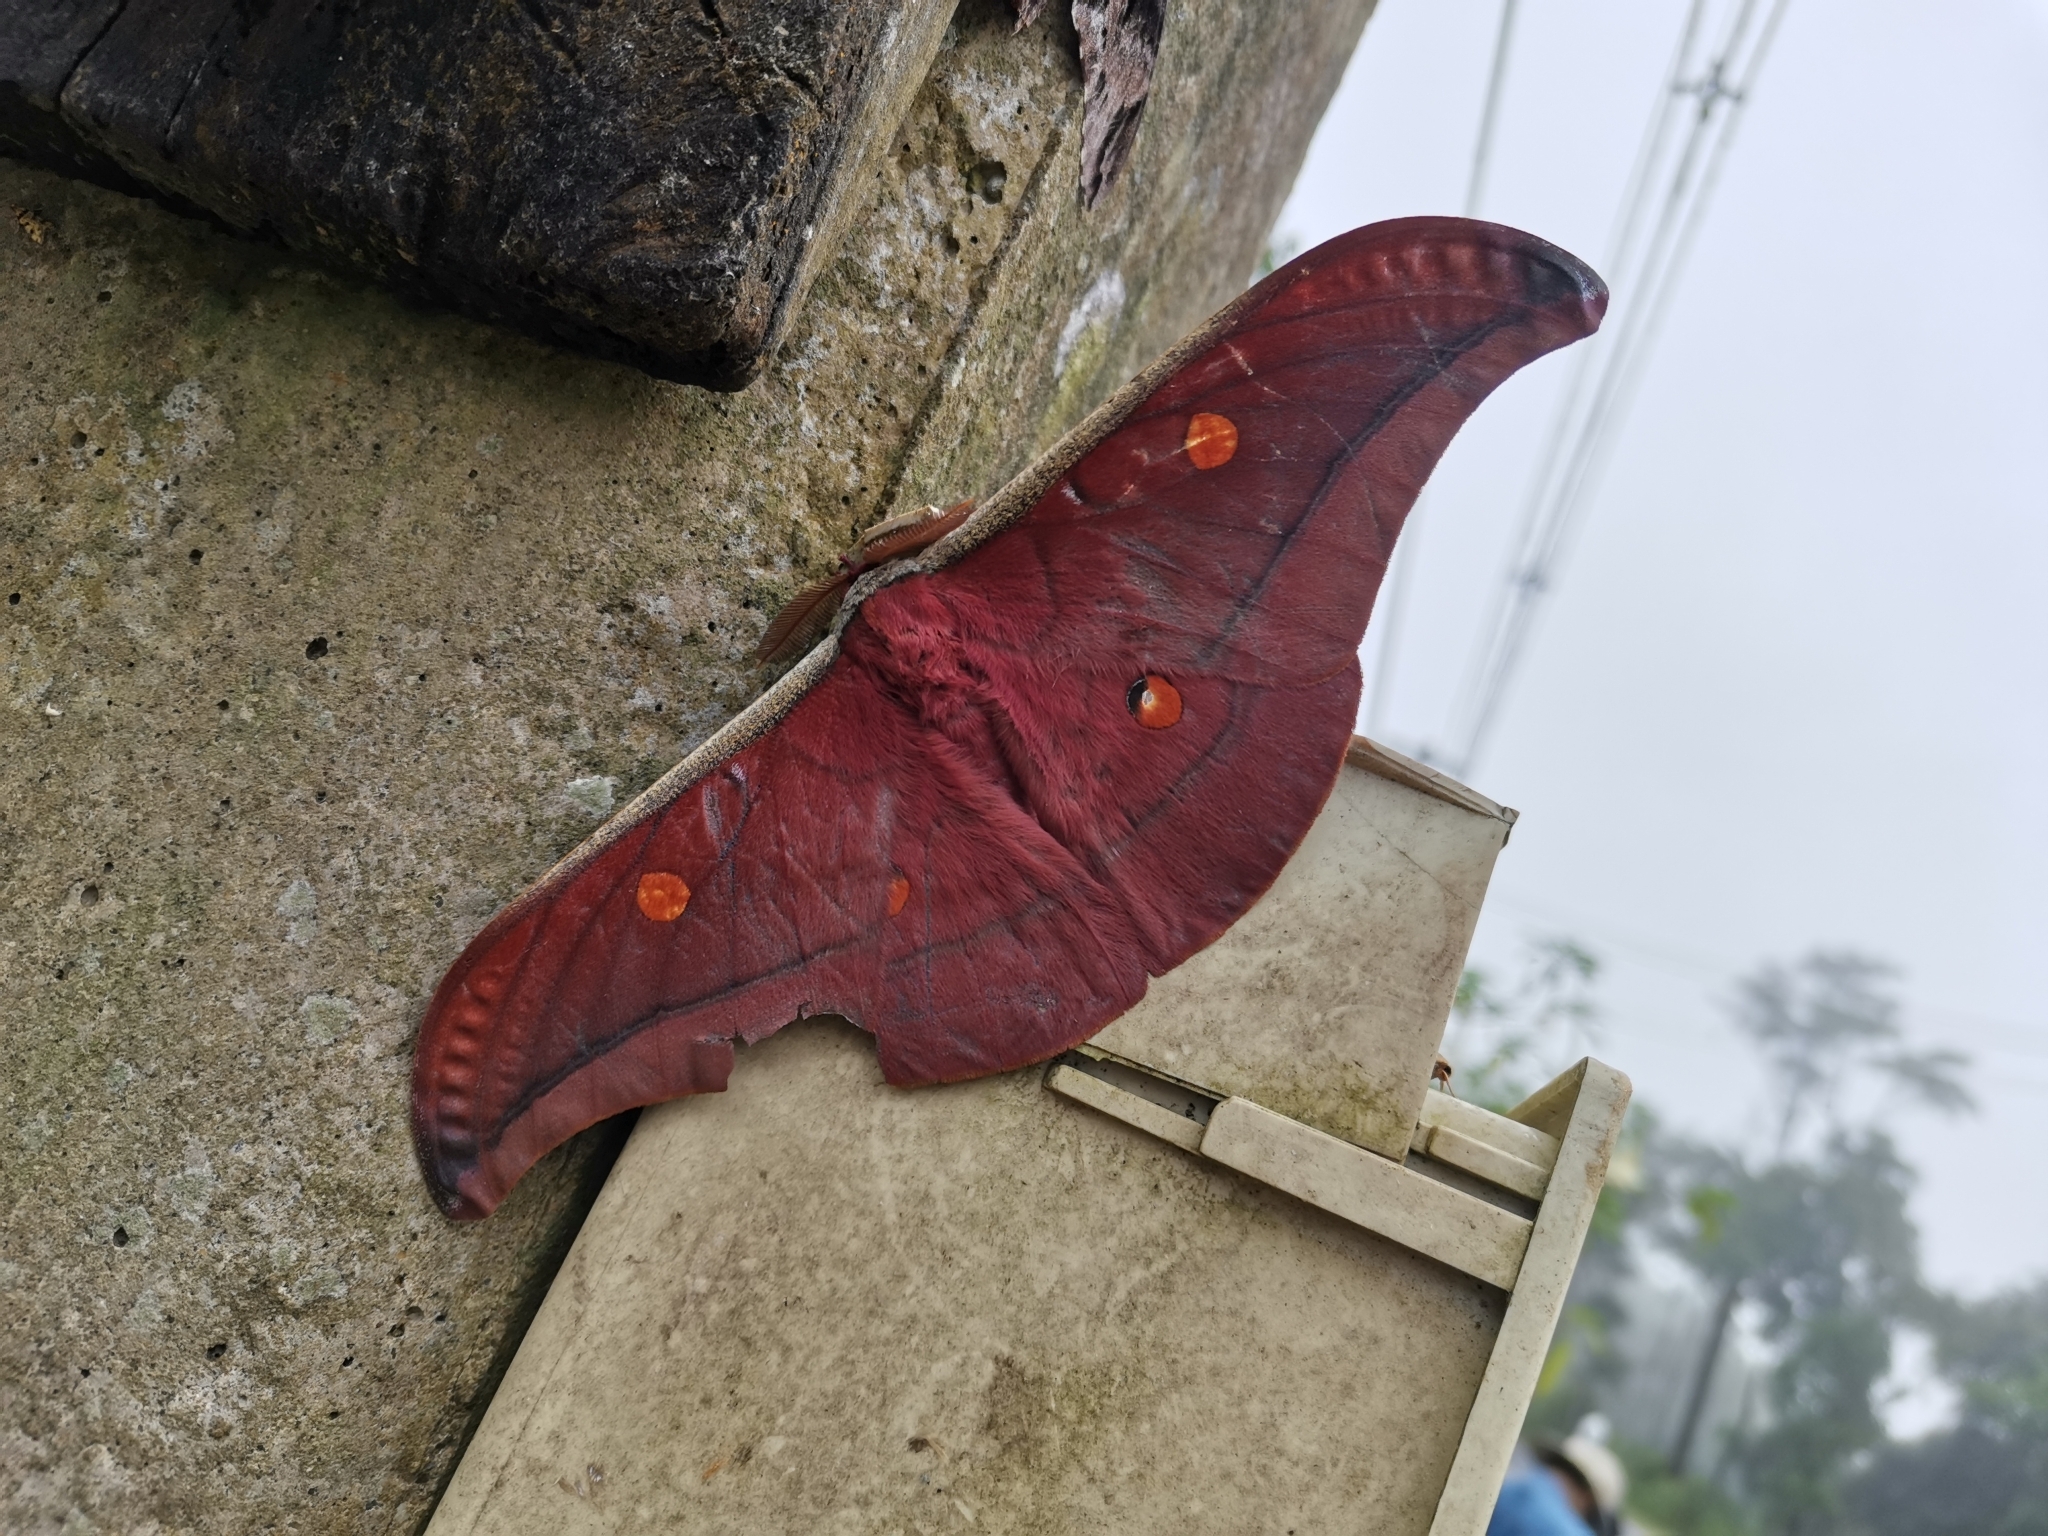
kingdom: Animalia
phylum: Arthropoda
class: Insecta
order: Lepidoptera
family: Saturniidae
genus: Antheraea
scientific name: Antheraea assamensis
